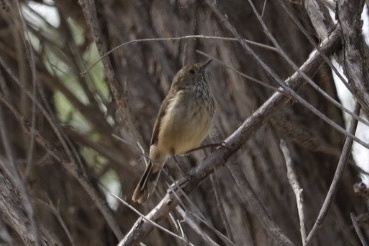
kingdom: Animalia
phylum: Chordata
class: Aves
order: Passeriformes
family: Acanthizidae
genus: Acanthiza
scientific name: Acanthiza pusilla
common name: Brown thornbill
